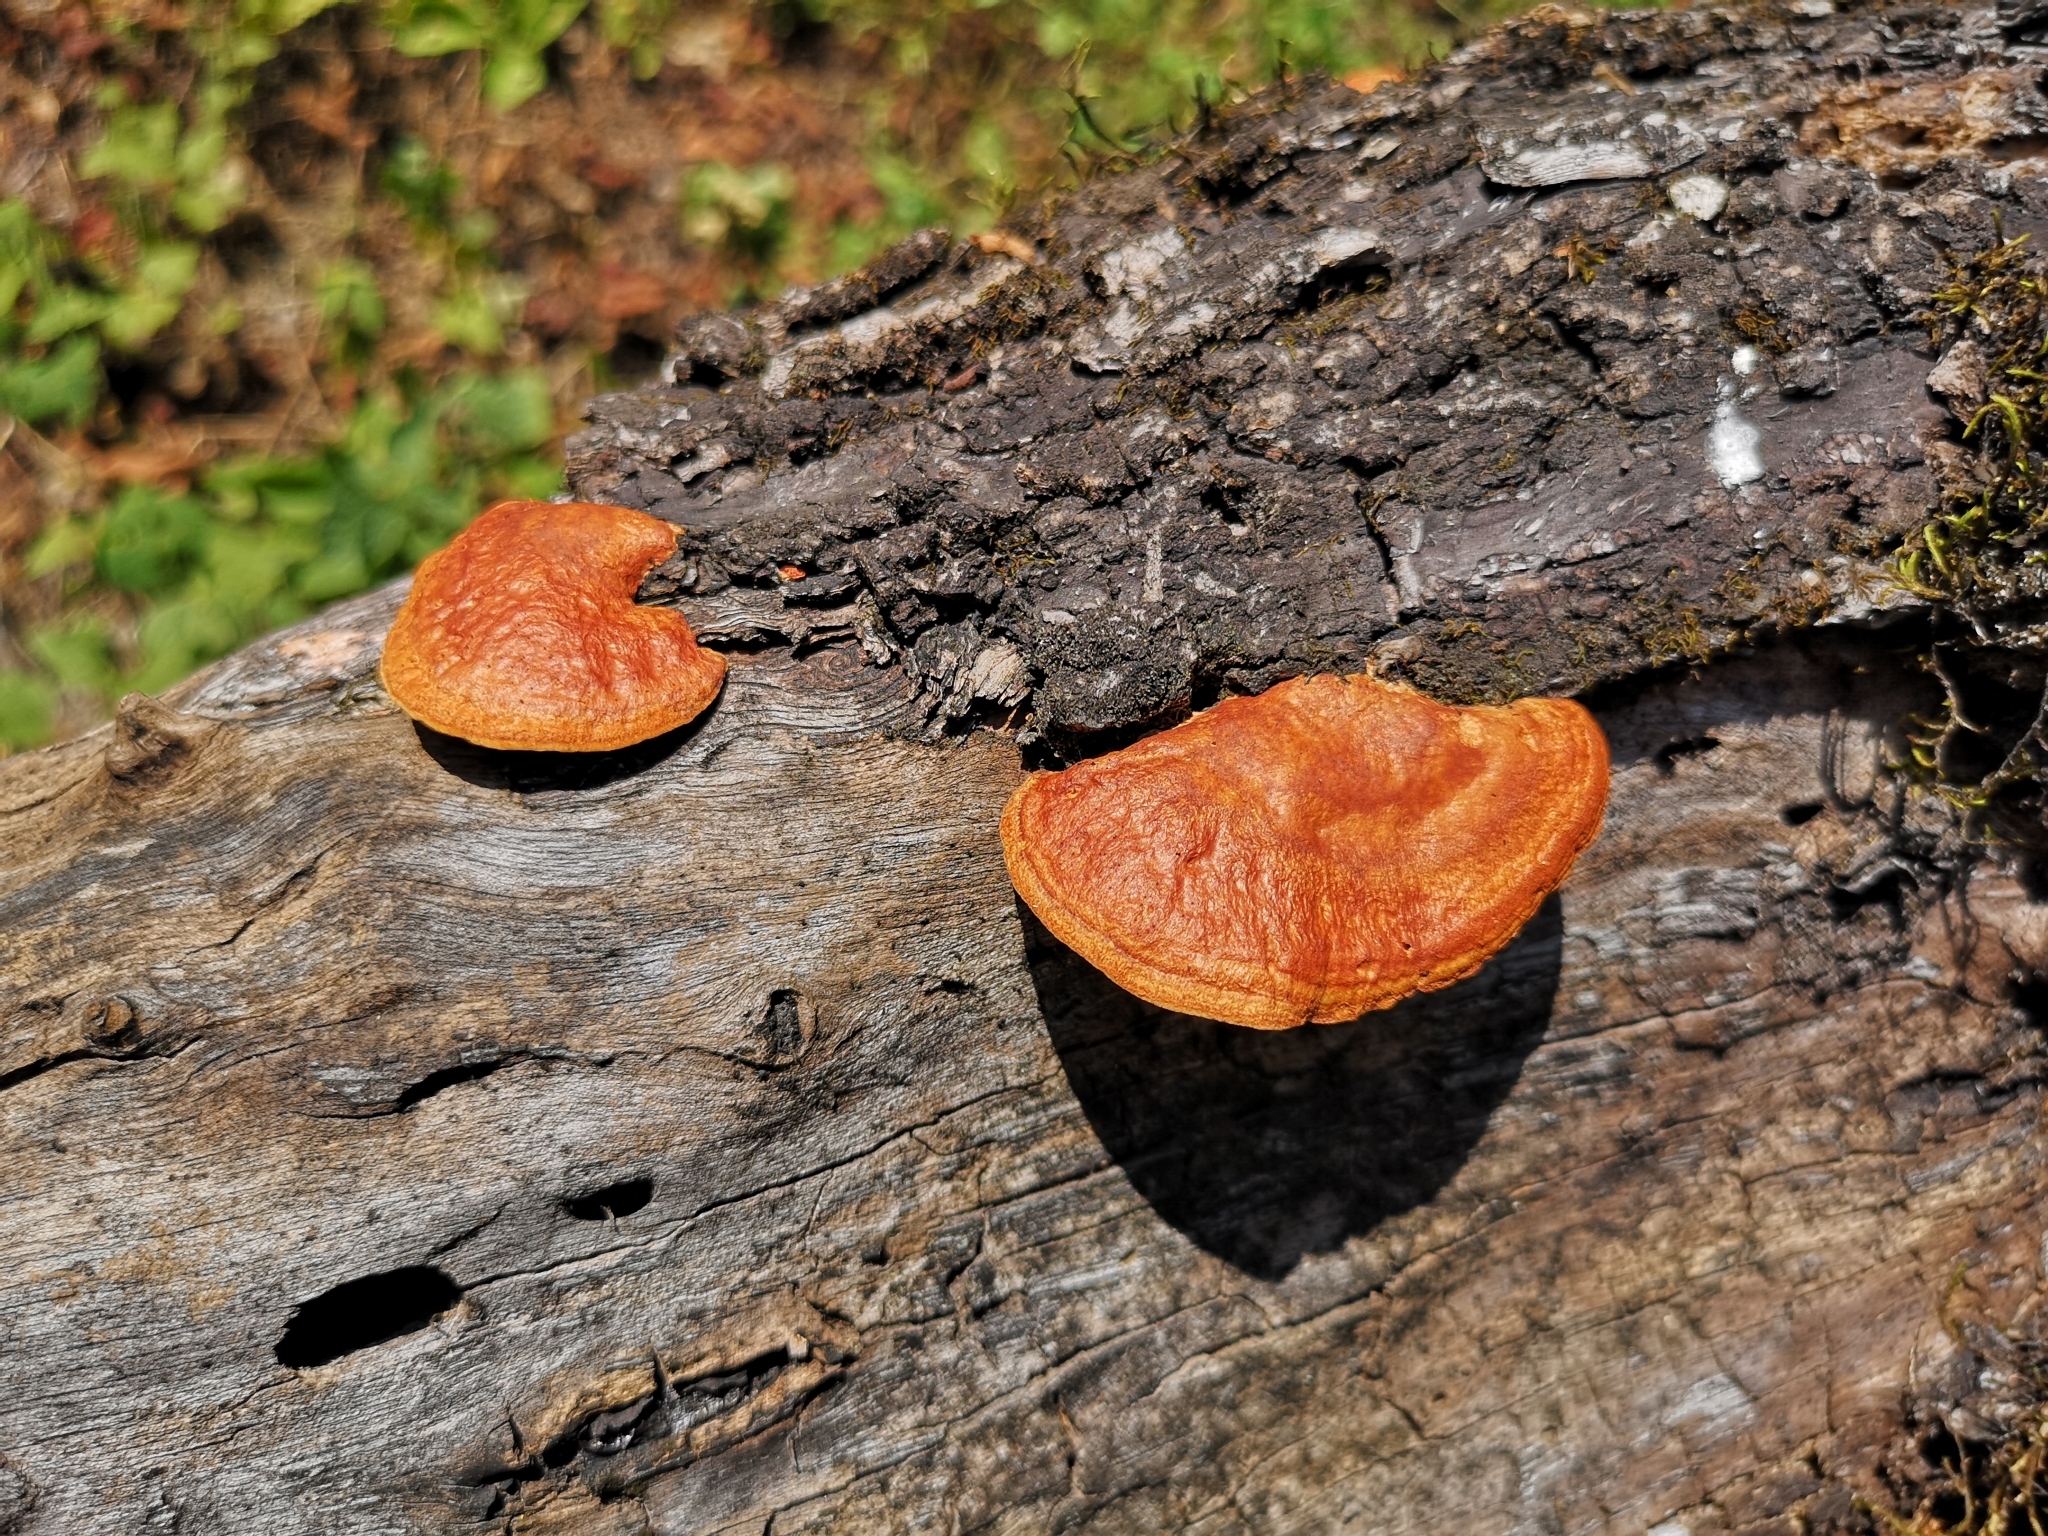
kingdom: Fungi
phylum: Basidiomycota
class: Agaricomycetes
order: Polyporales
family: Polyporaceae
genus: Trametes
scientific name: Trametes cinnabarina
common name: Northern cinnabar polypore
